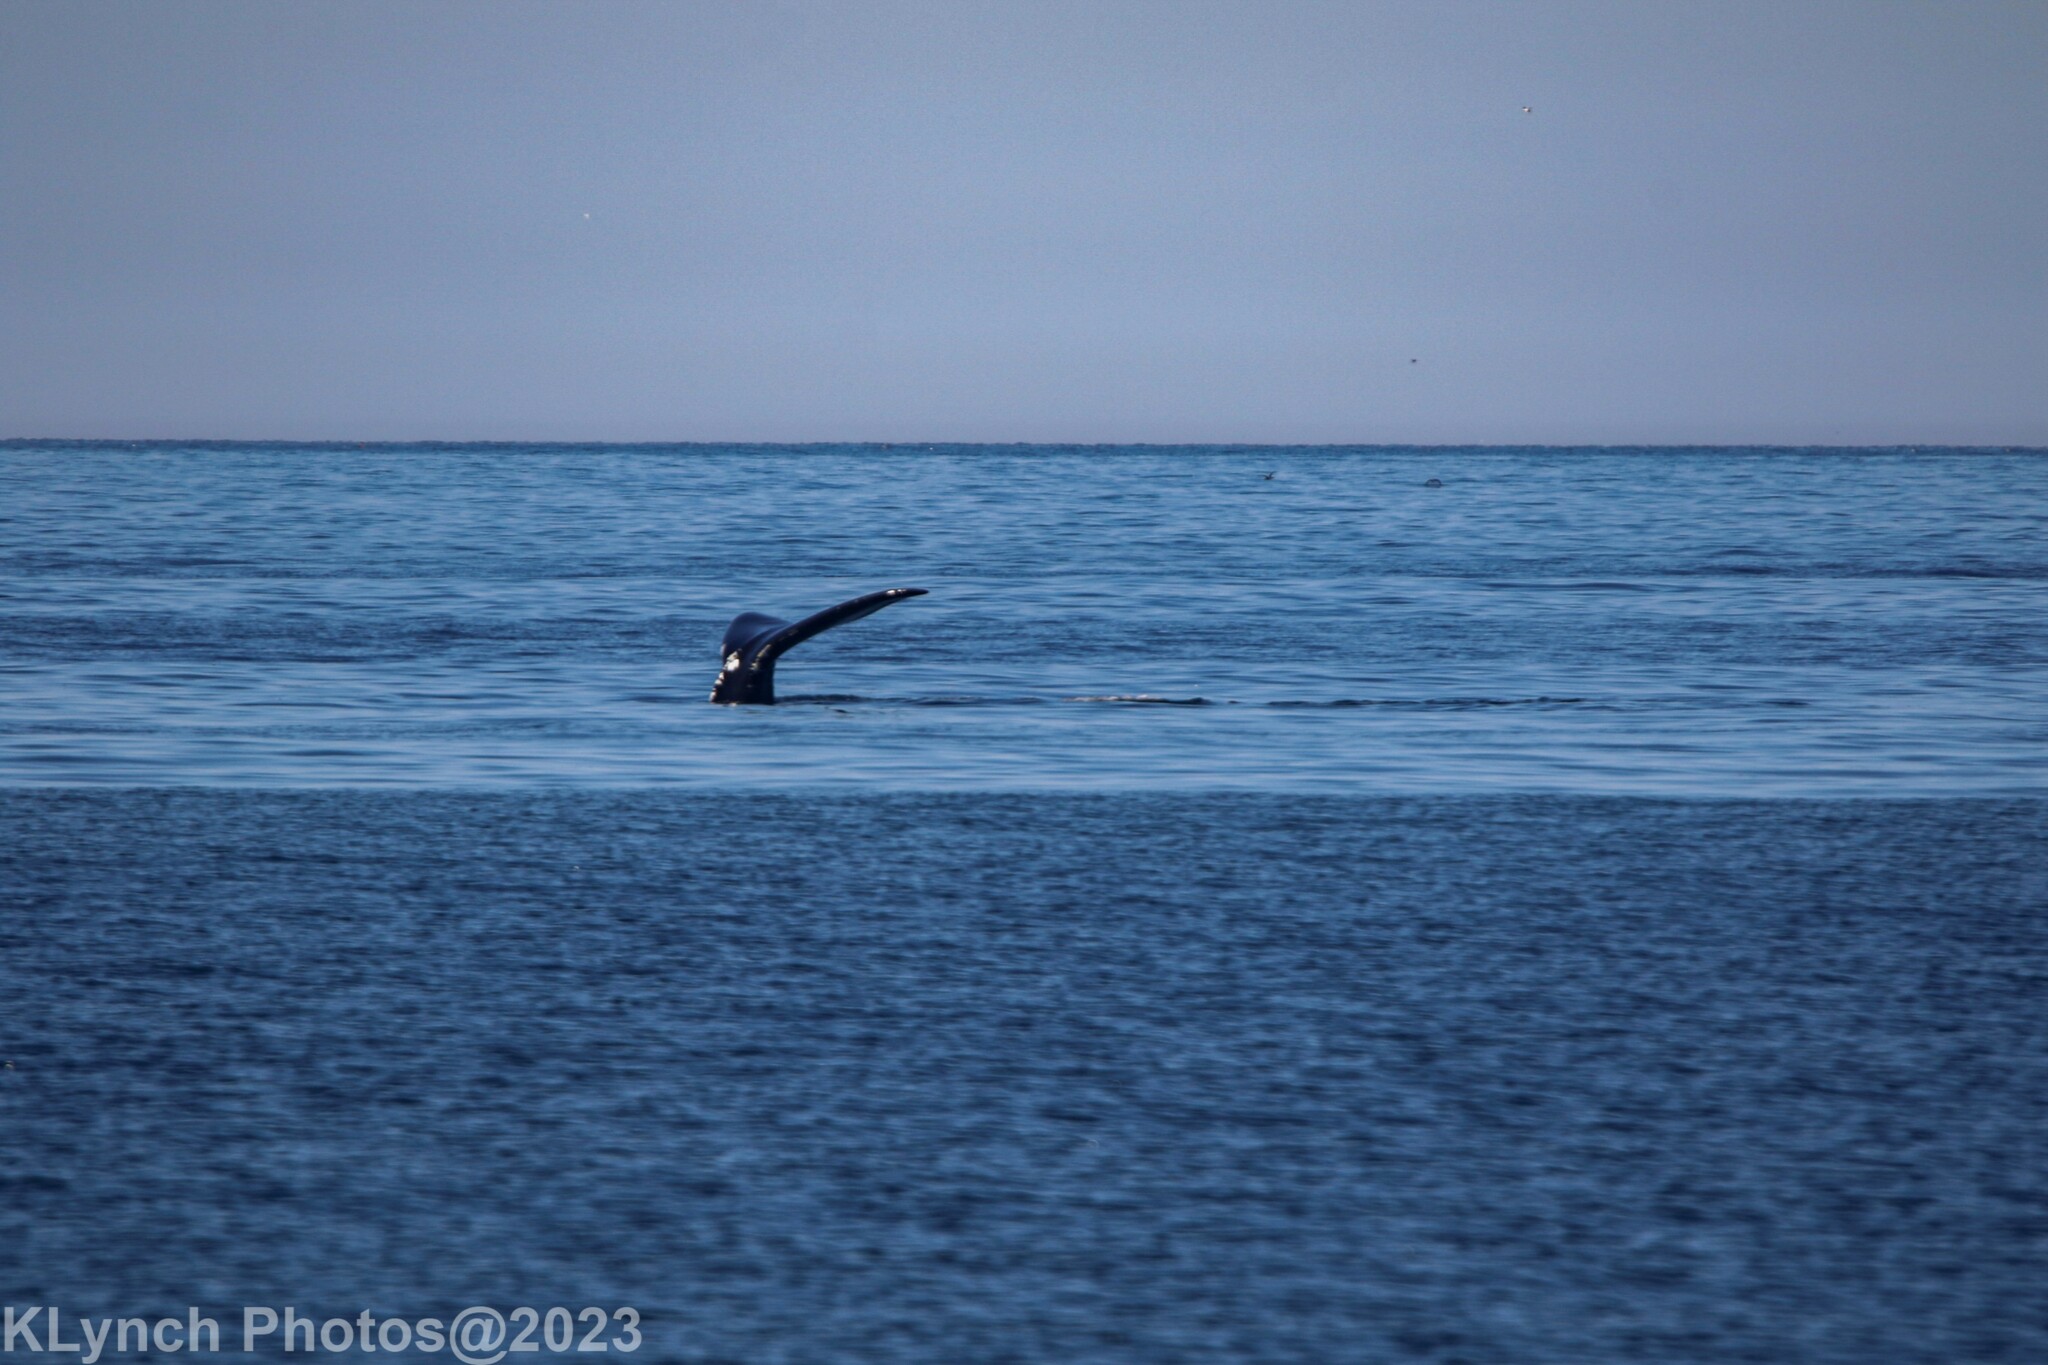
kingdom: Animalia
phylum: Chordata
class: Mammalia
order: Cetacea
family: Balaenidae
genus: Eubalaena
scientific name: Eubalaena glacialis
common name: North atlantic right whale
